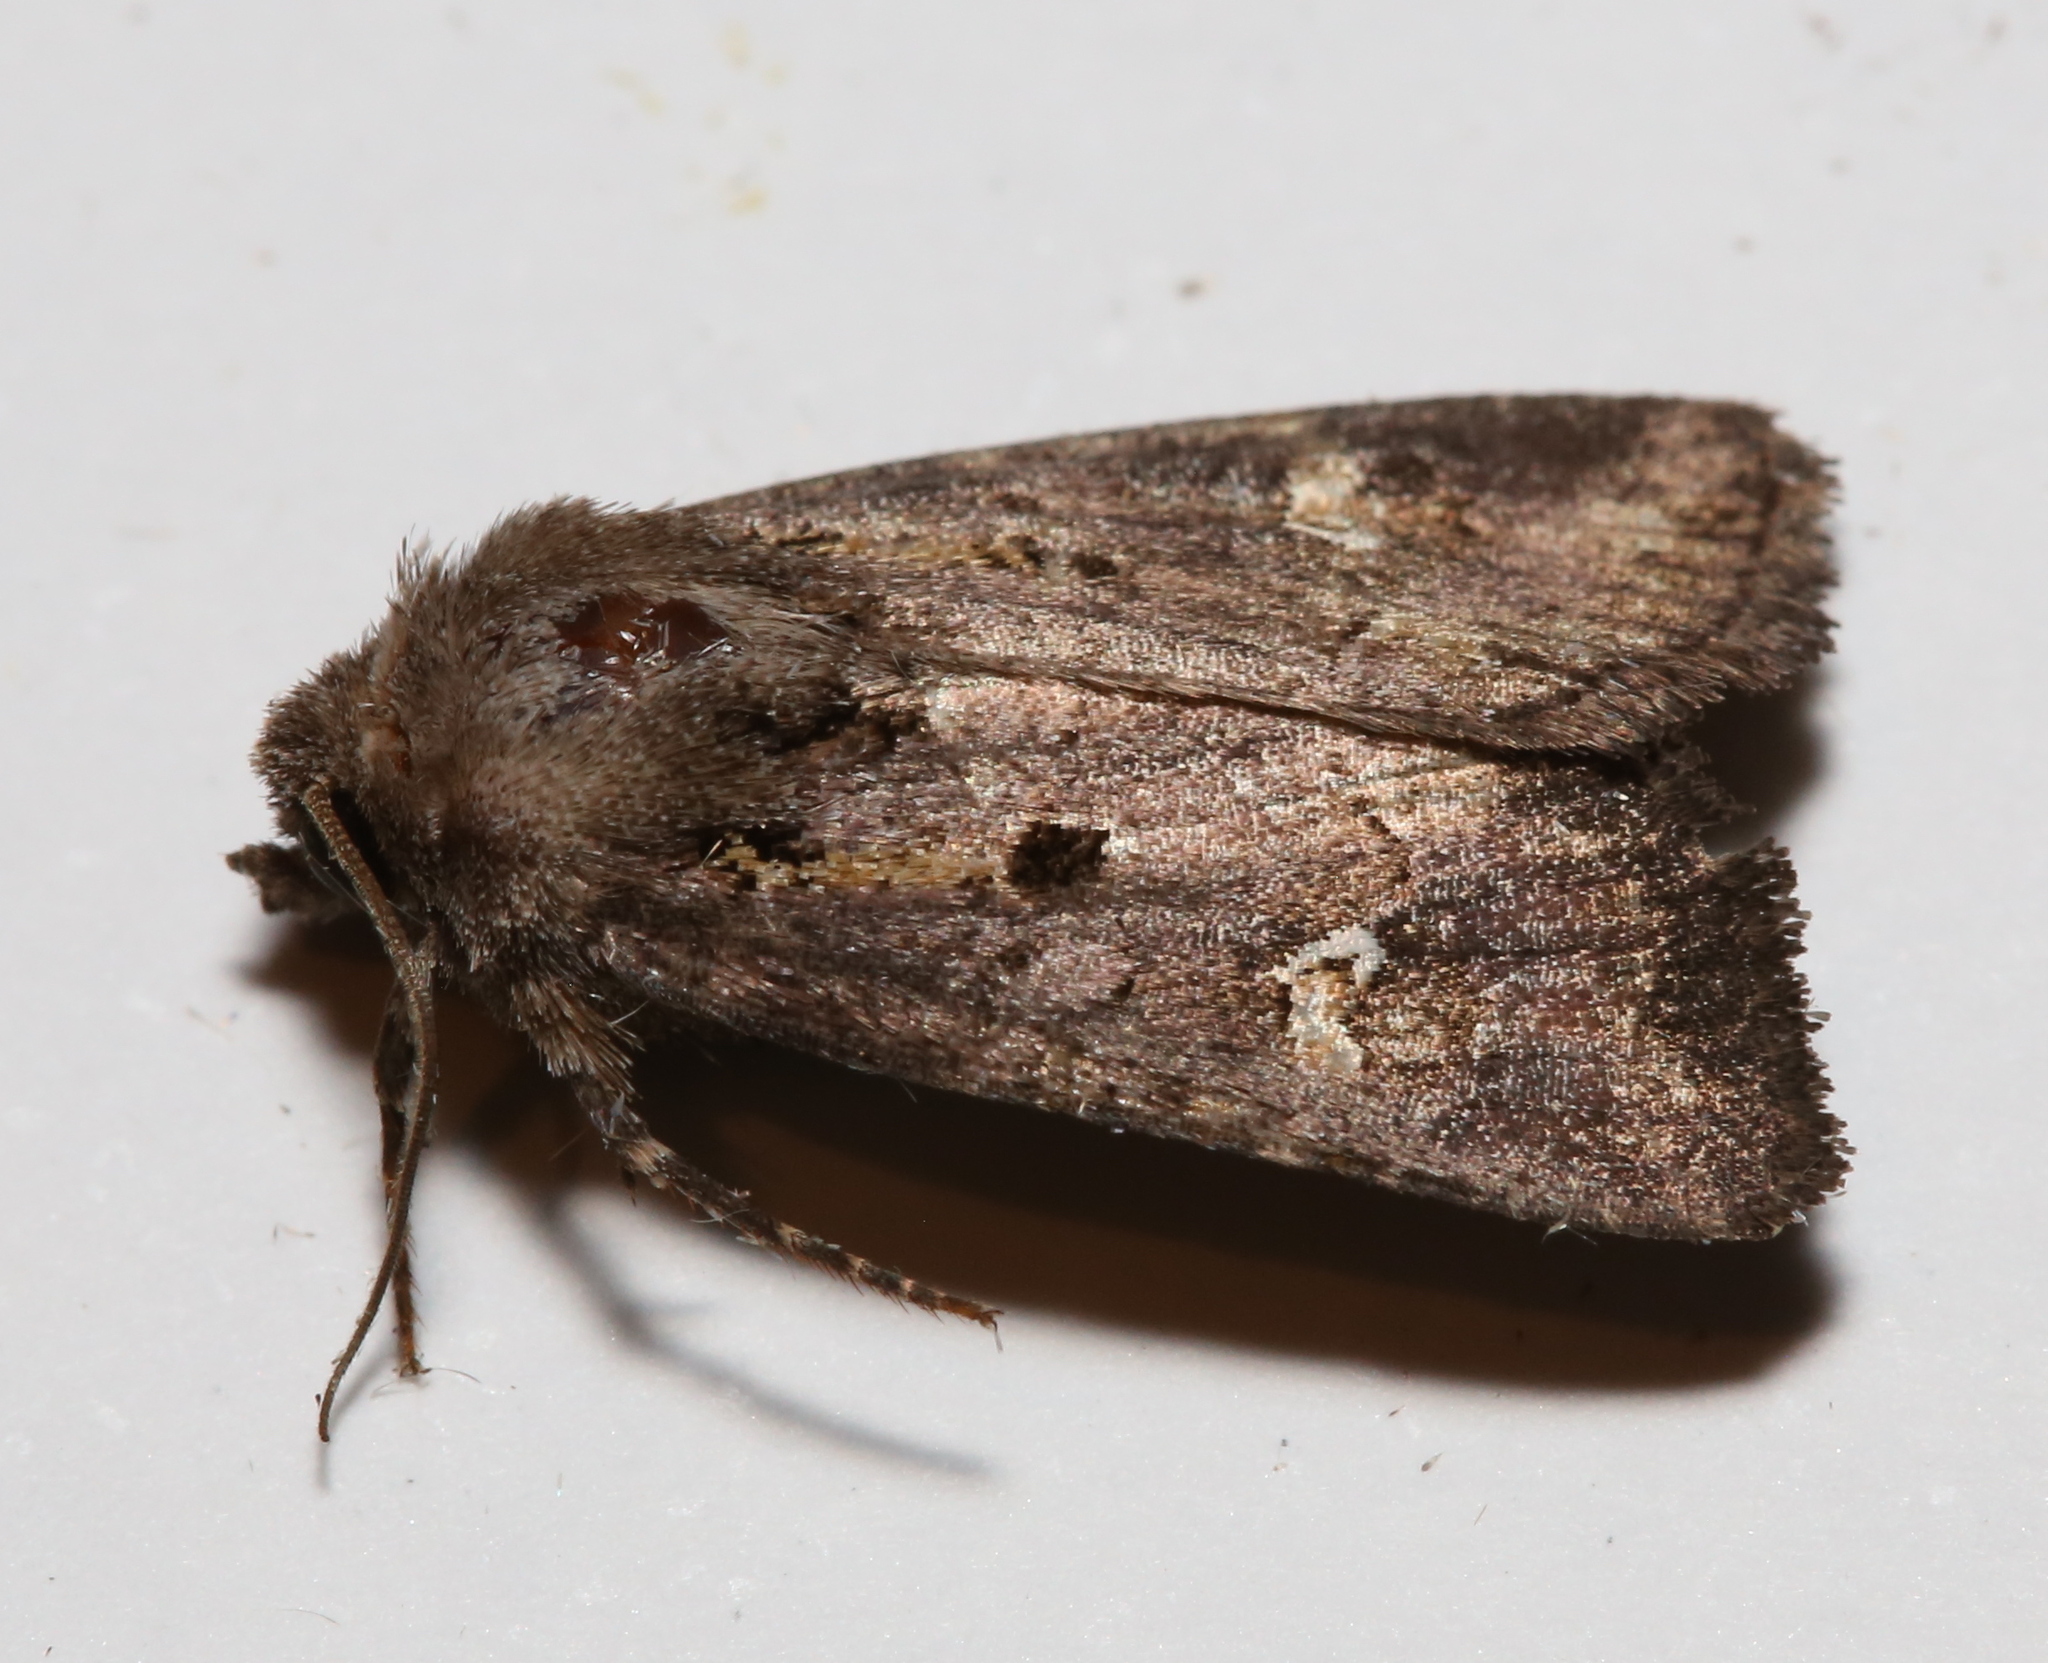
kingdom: Animalia
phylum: Arthropoda
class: Insecta
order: Lepidoptera
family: Noctuidae
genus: Lacinipolia
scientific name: Lacinipolia renigera
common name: Kidney-spotted minor
